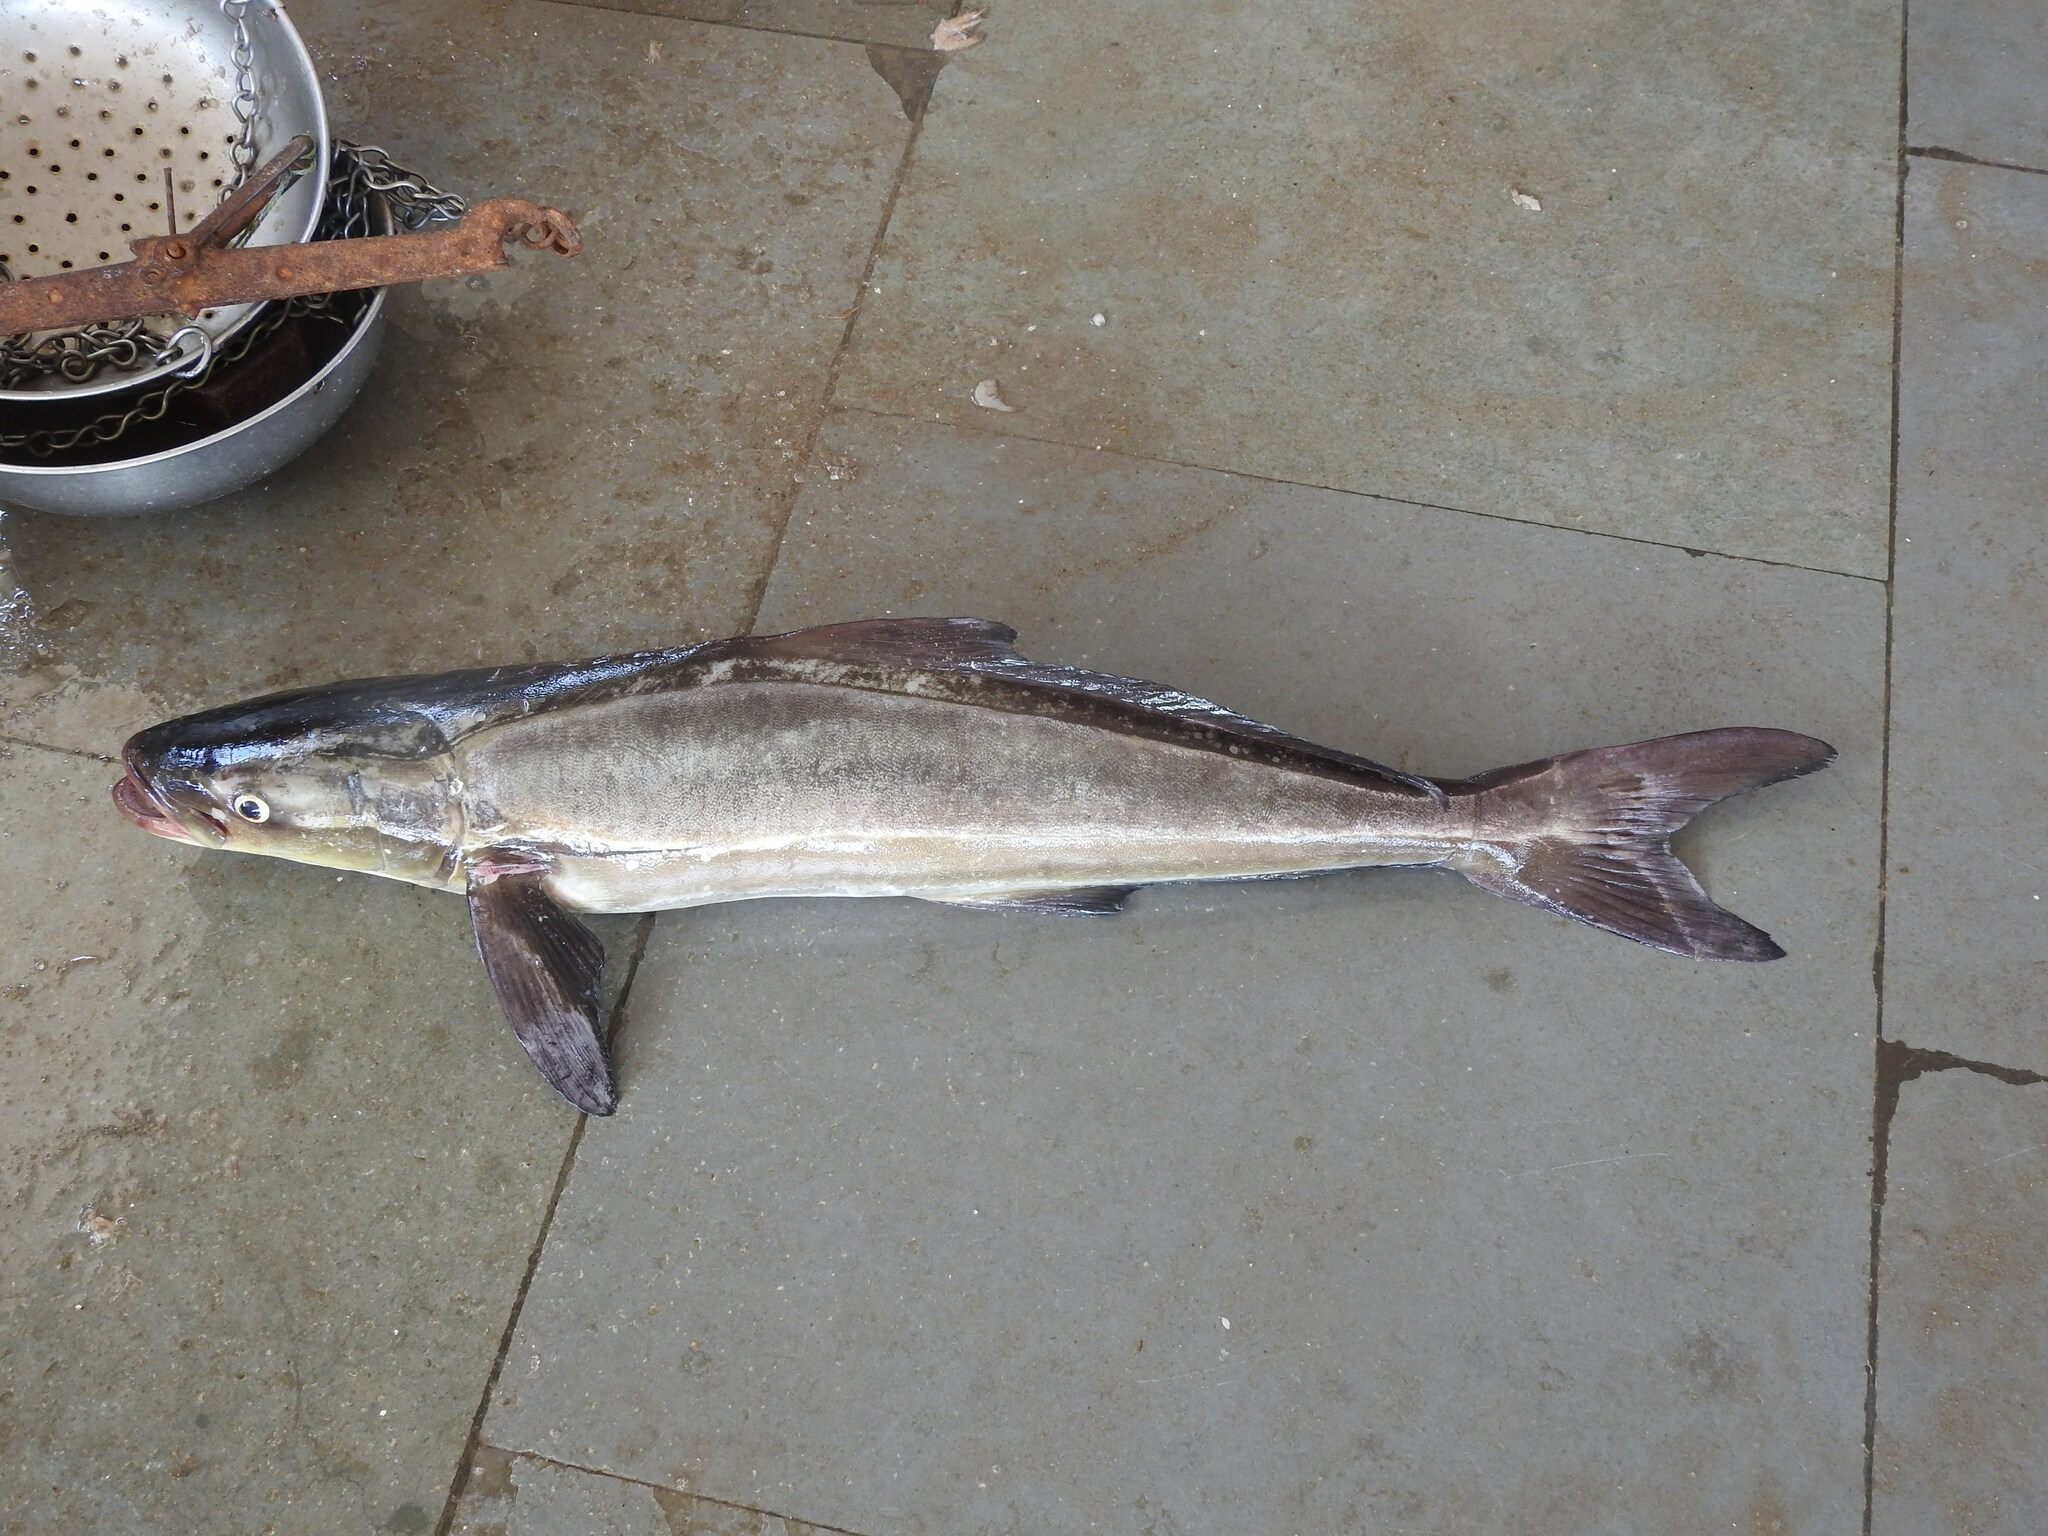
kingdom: Animalia
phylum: Chordata
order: Perciformes
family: Rachycentridae
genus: Rachycentron
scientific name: Rachycentron canadum
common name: Cobia
